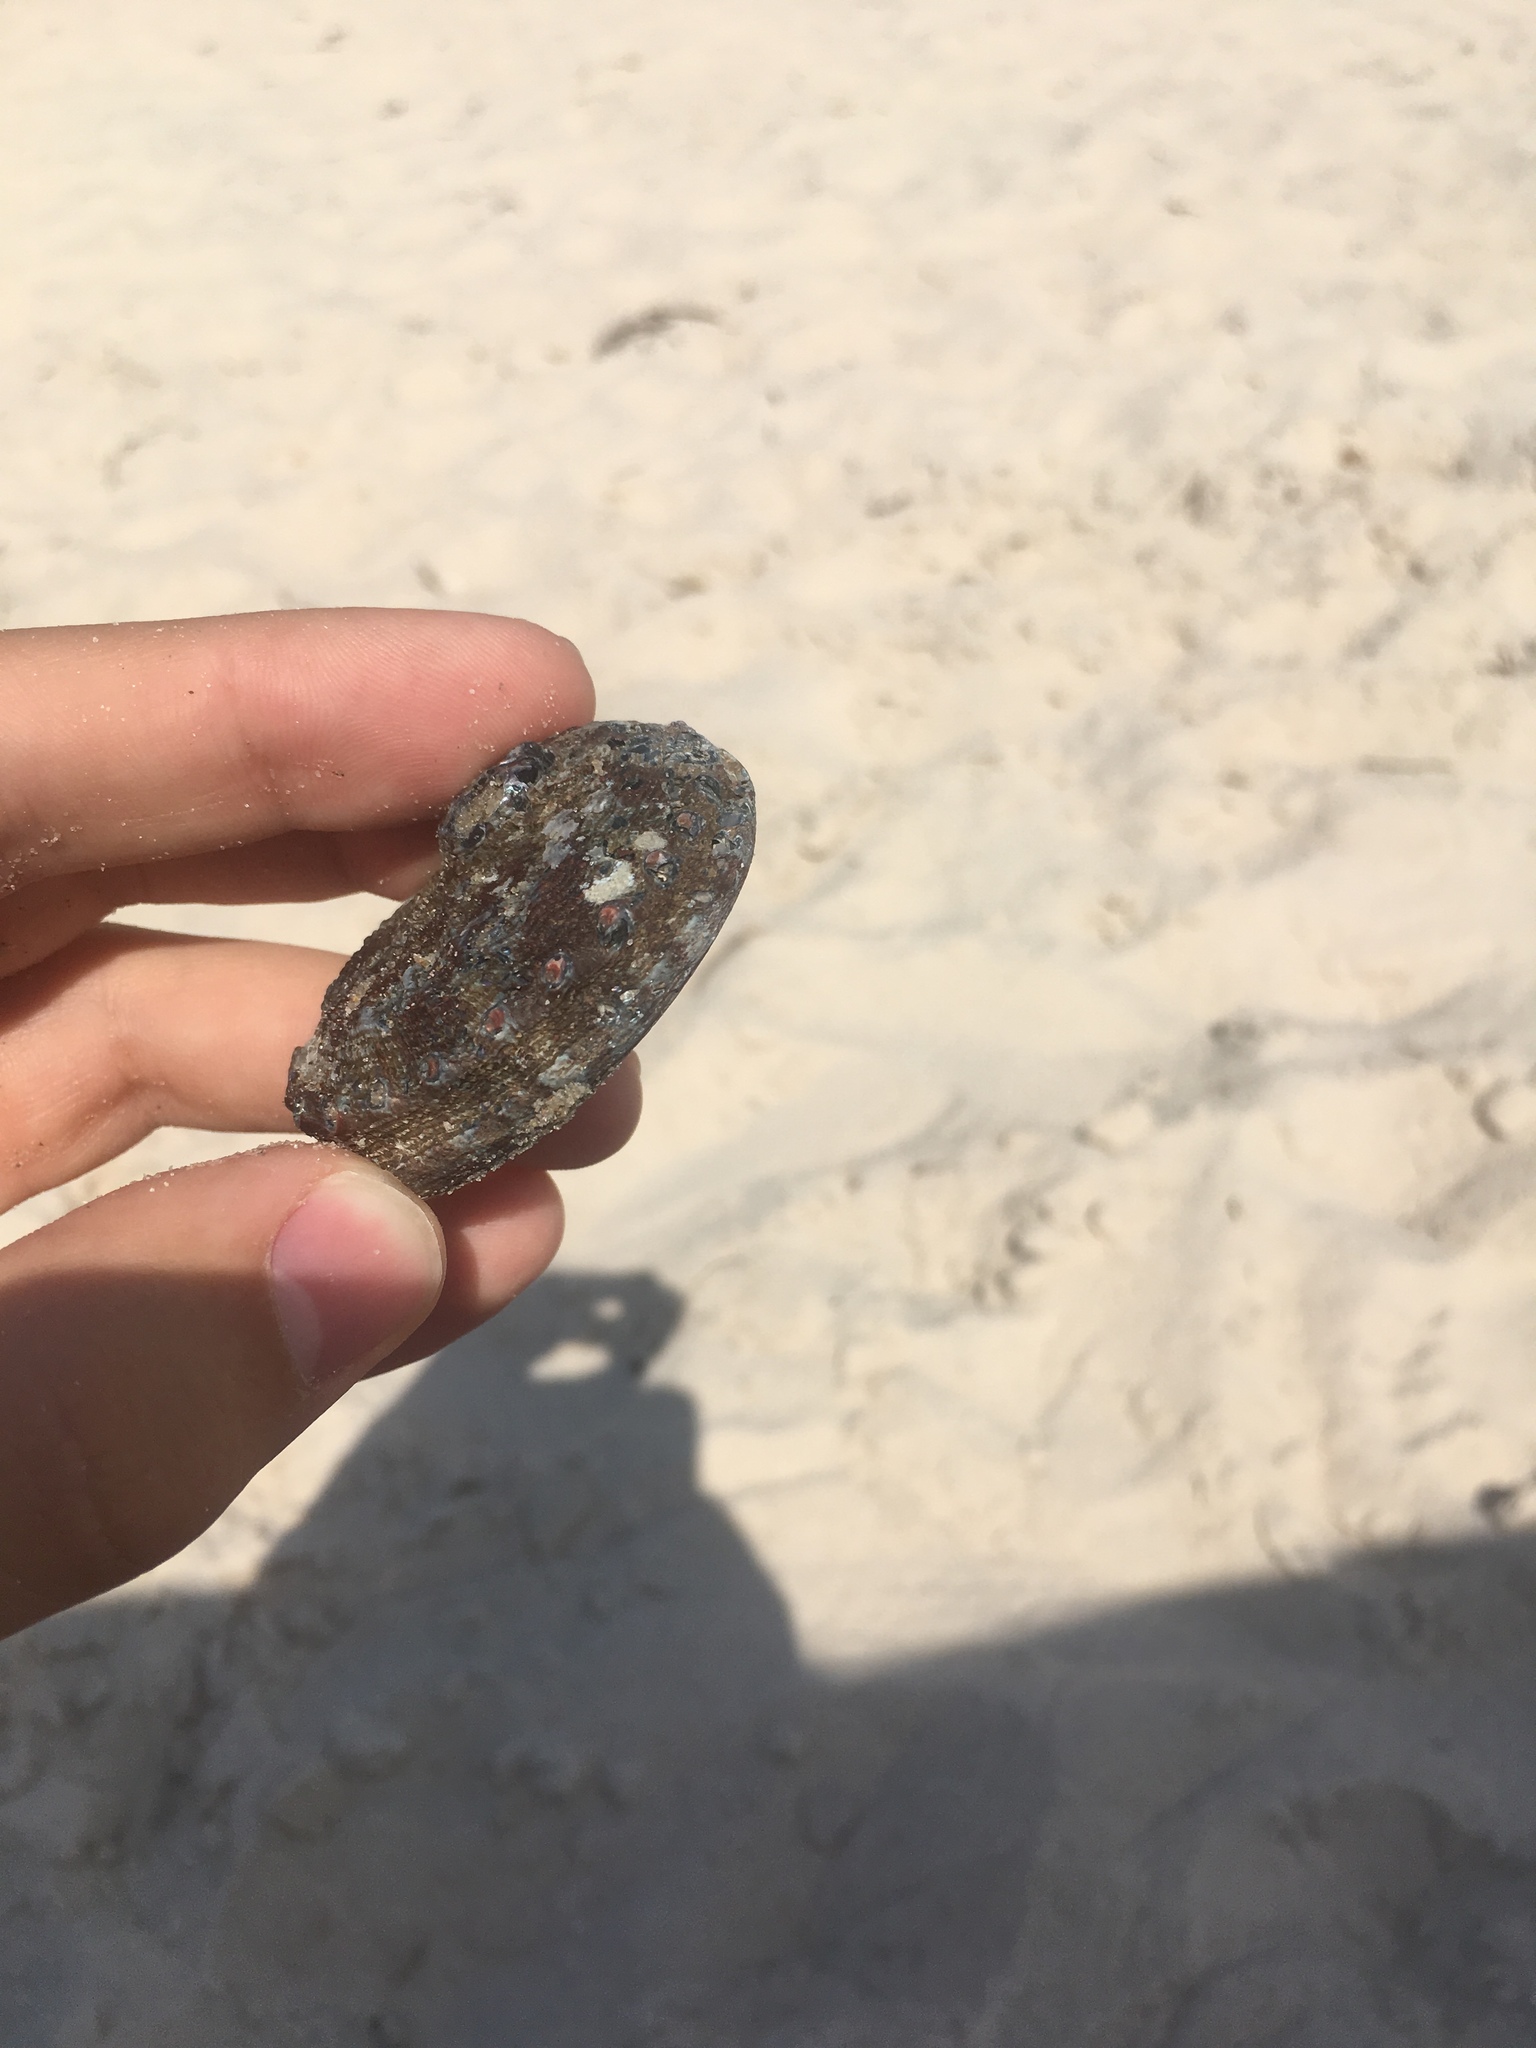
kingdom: Animalia
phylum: Mollusca
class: Gastropoda
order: Lepetellida
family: Haliotidae
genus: Haliotis
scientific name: Haliotis
